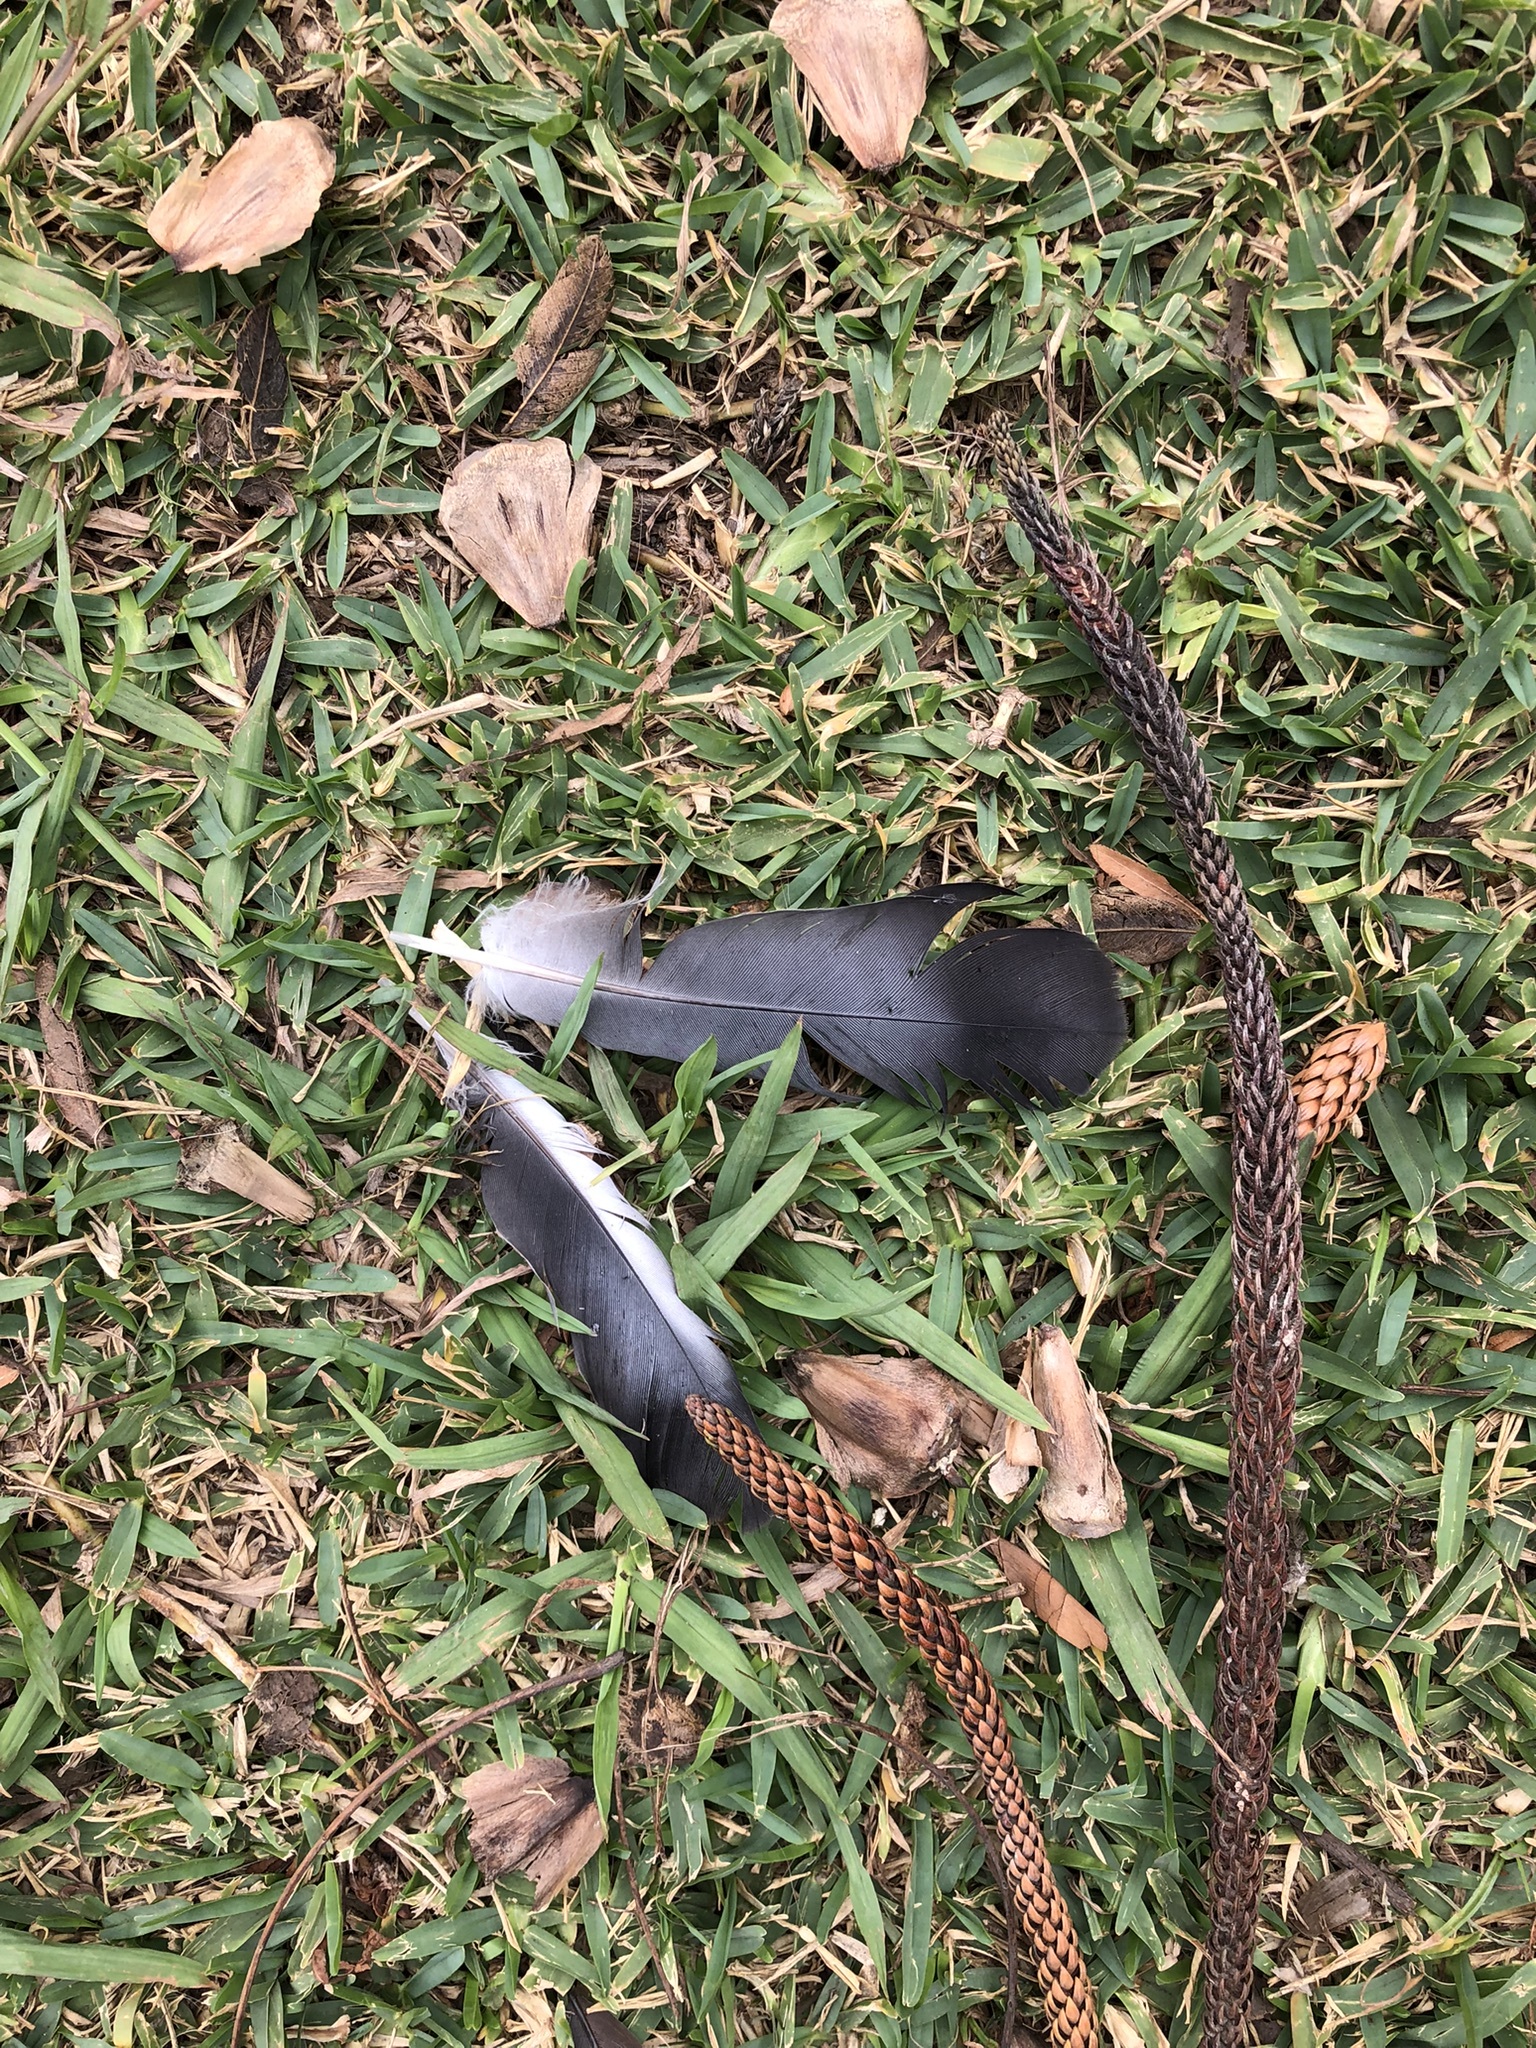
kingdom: Animalia
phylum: Chordata
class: Aves
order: Columbiformes
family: Columbidae
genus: Columba
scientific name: Columba livia
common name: Rock pigeon
